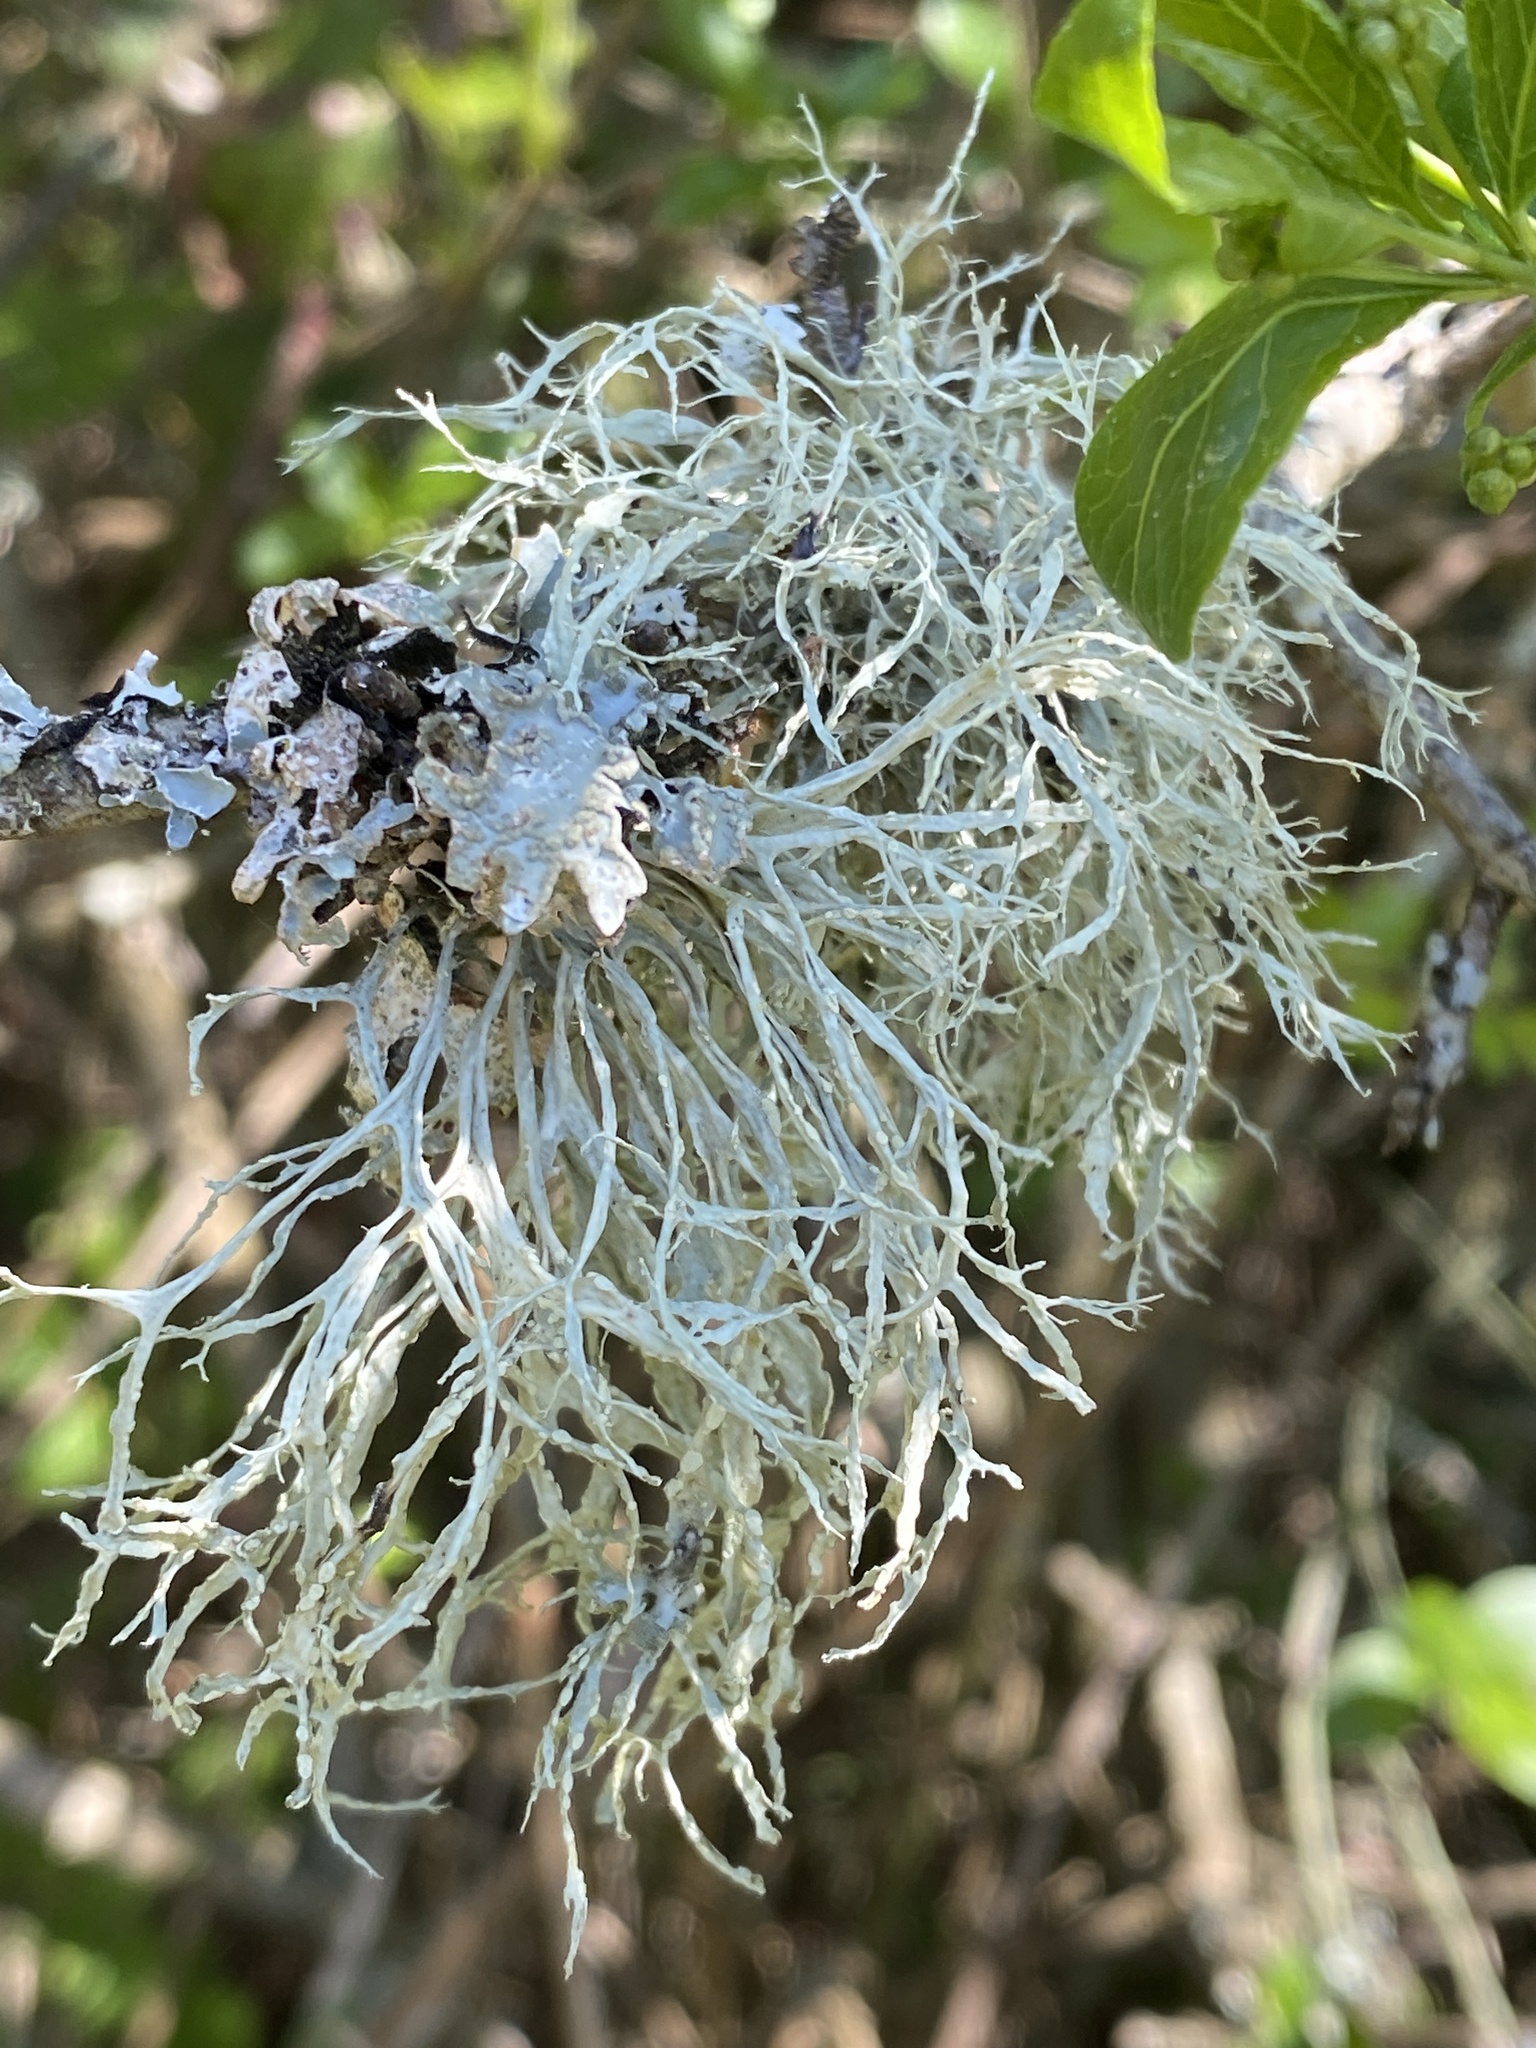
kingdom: Fungi
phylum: Ascomycota
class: Lecanoromycetes
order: Lecanorales
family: Ramalinaceae
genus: Ramalina
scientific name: Ramalina farinacea
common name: Farinose cartilage lichen
